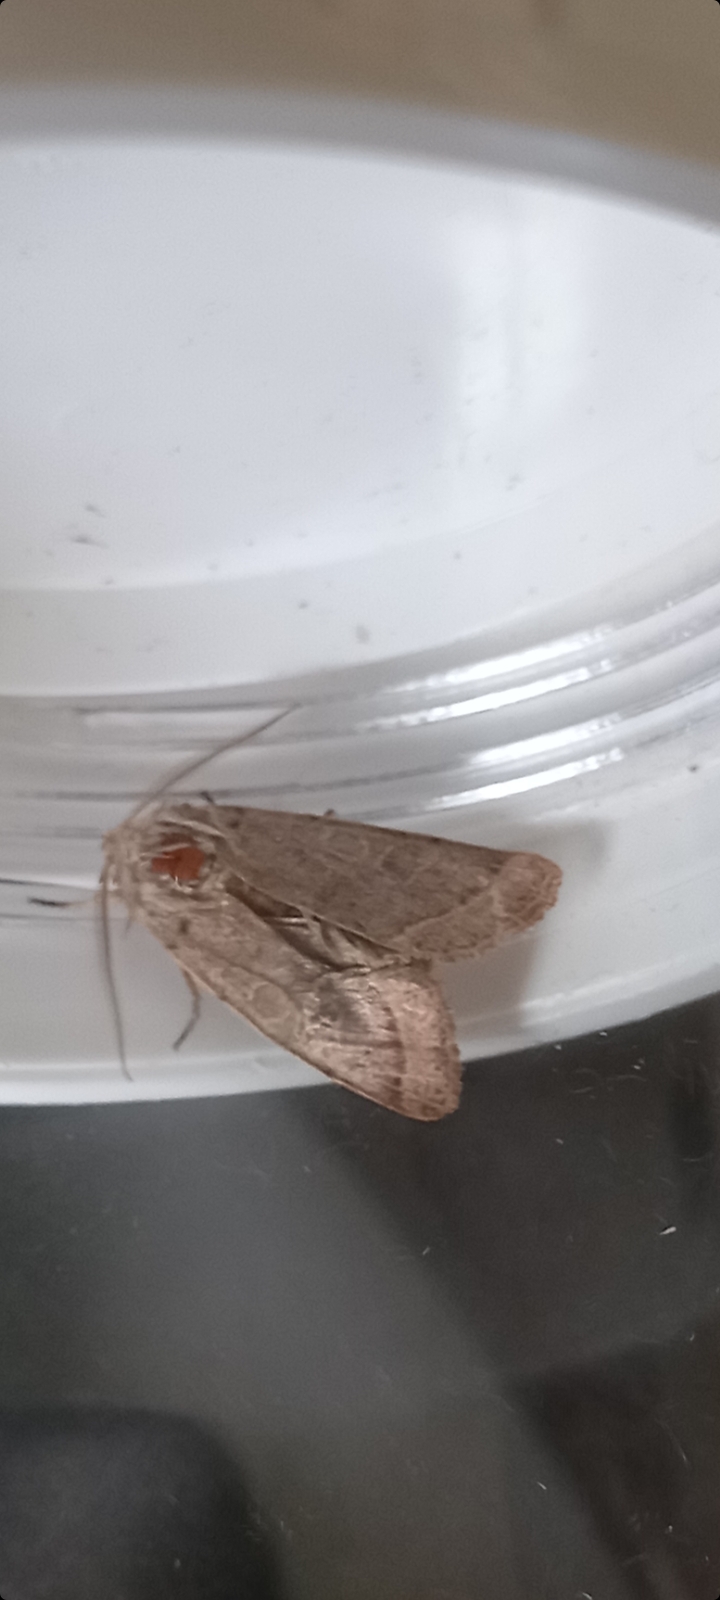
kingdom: Animalia
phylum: Arthropoda
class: Insecta
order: Lepidoptera
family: Noctuidae
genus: Orthosia
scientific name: Orthosia cerasi
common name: Common quaker
